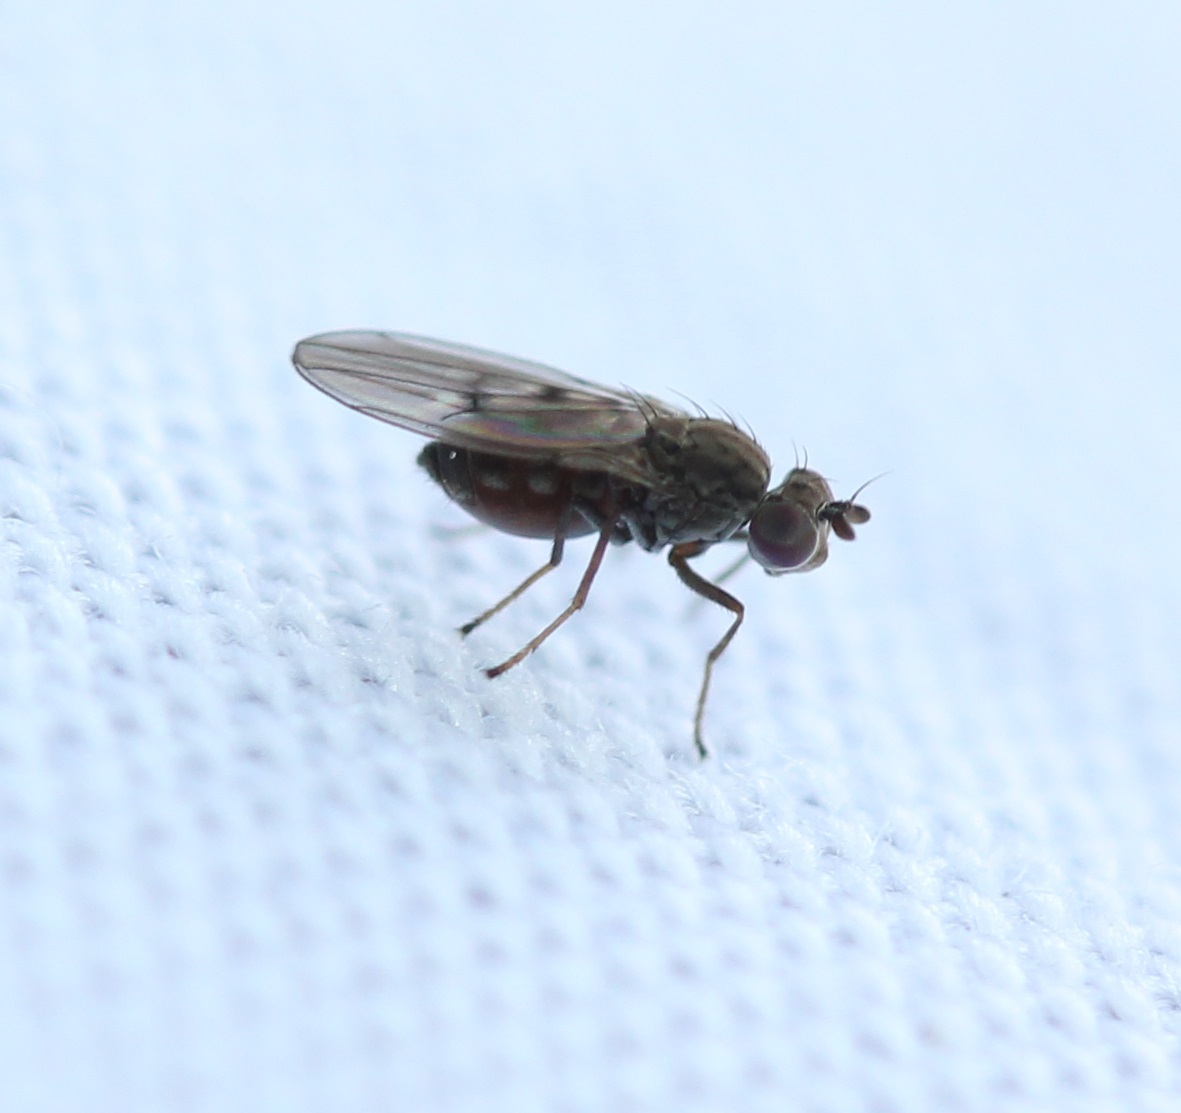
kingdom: Animalia
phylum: Arthropoda
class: Insecta
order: Diptera
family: Ephydridae
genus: Philygria
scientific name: Philygria debilis
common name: Brine fly
